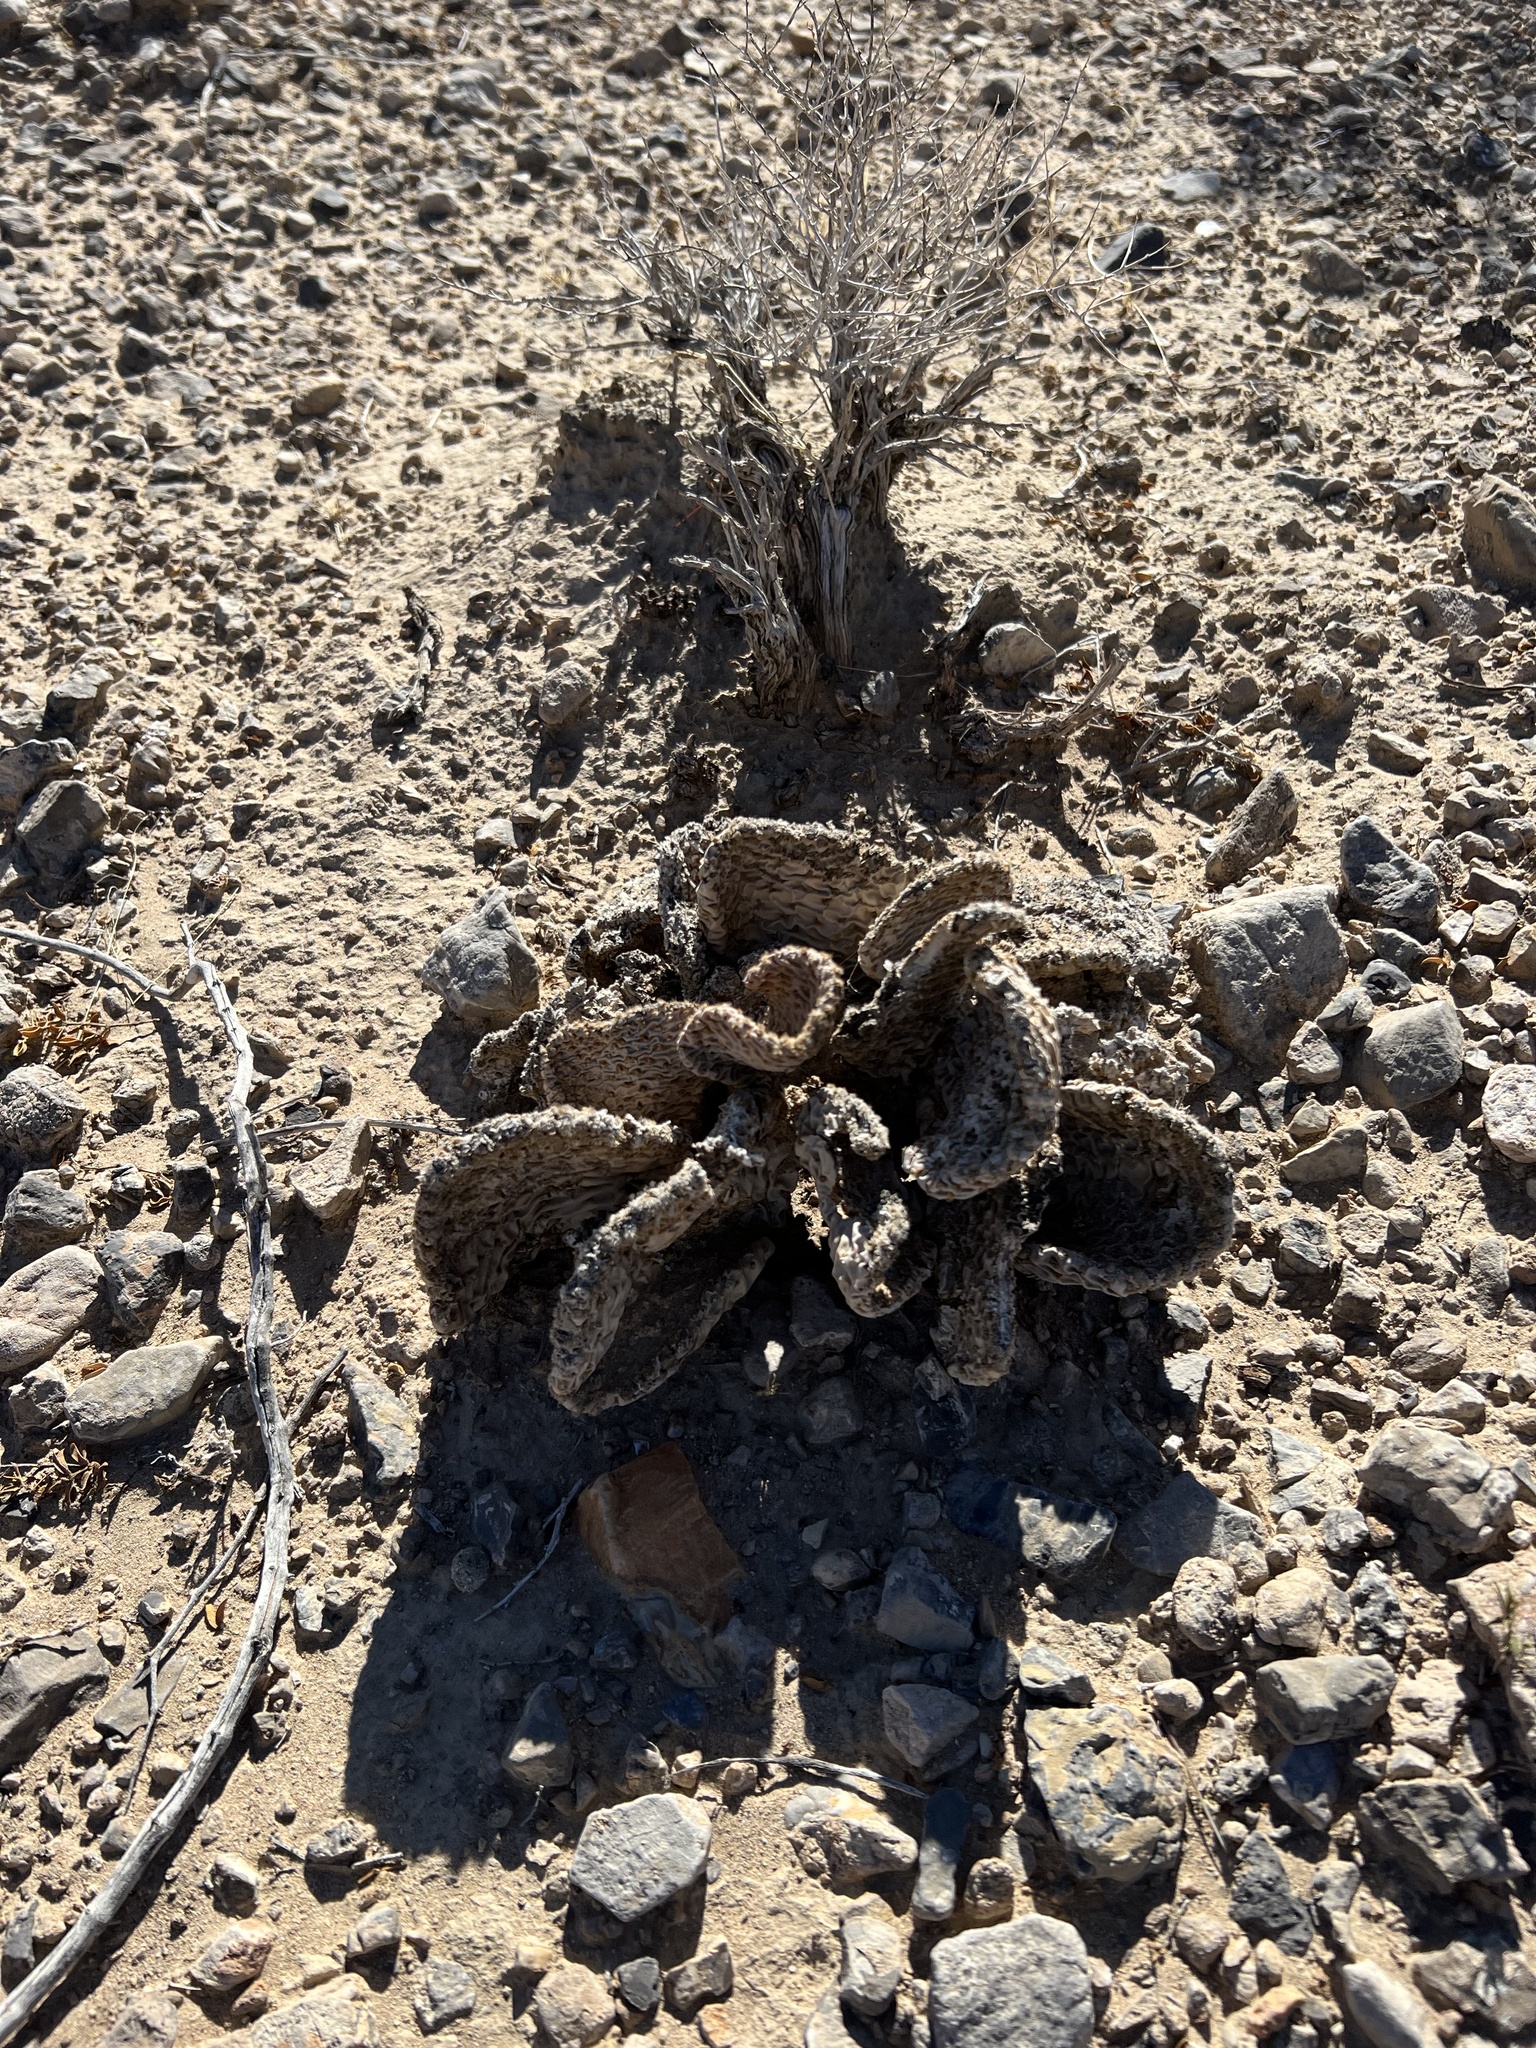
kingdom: Plantae
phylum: Tracheophyta
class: Magnoliopsida
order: Caryophyllales
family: Cactaceae
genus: Opuntia
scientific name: Opuntia basilaris
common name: Beavertail prickly-pear
